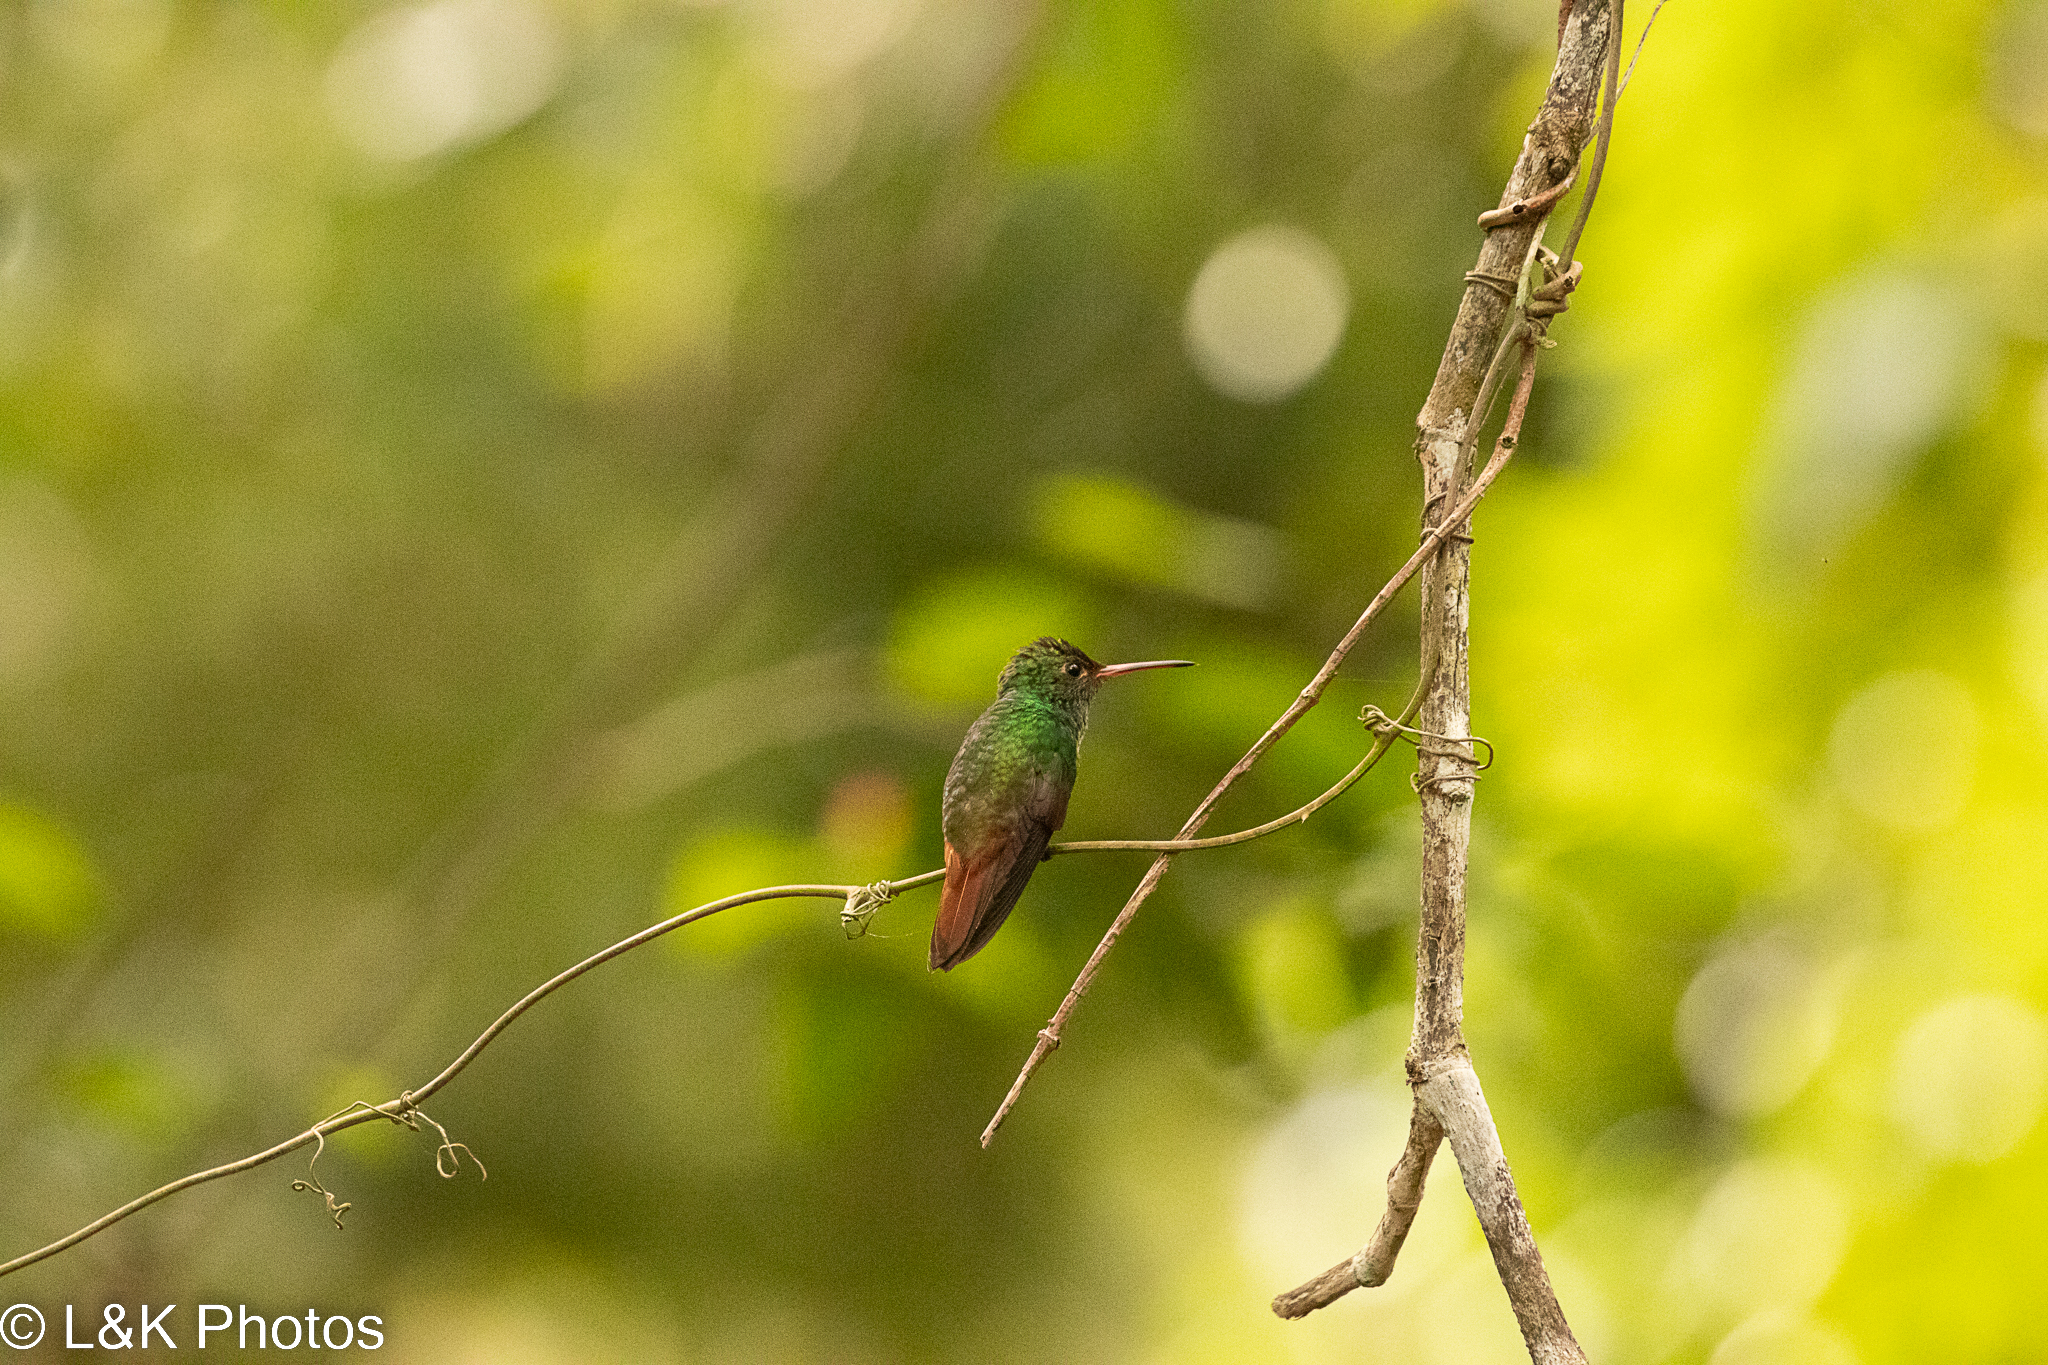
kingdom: Animalia
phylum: Chordata
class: Aves
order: Apodiformes
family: Trochilidae
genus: Amazilia
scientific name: Amazilia tzacatl
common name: Rufous-tailed hummingbird
